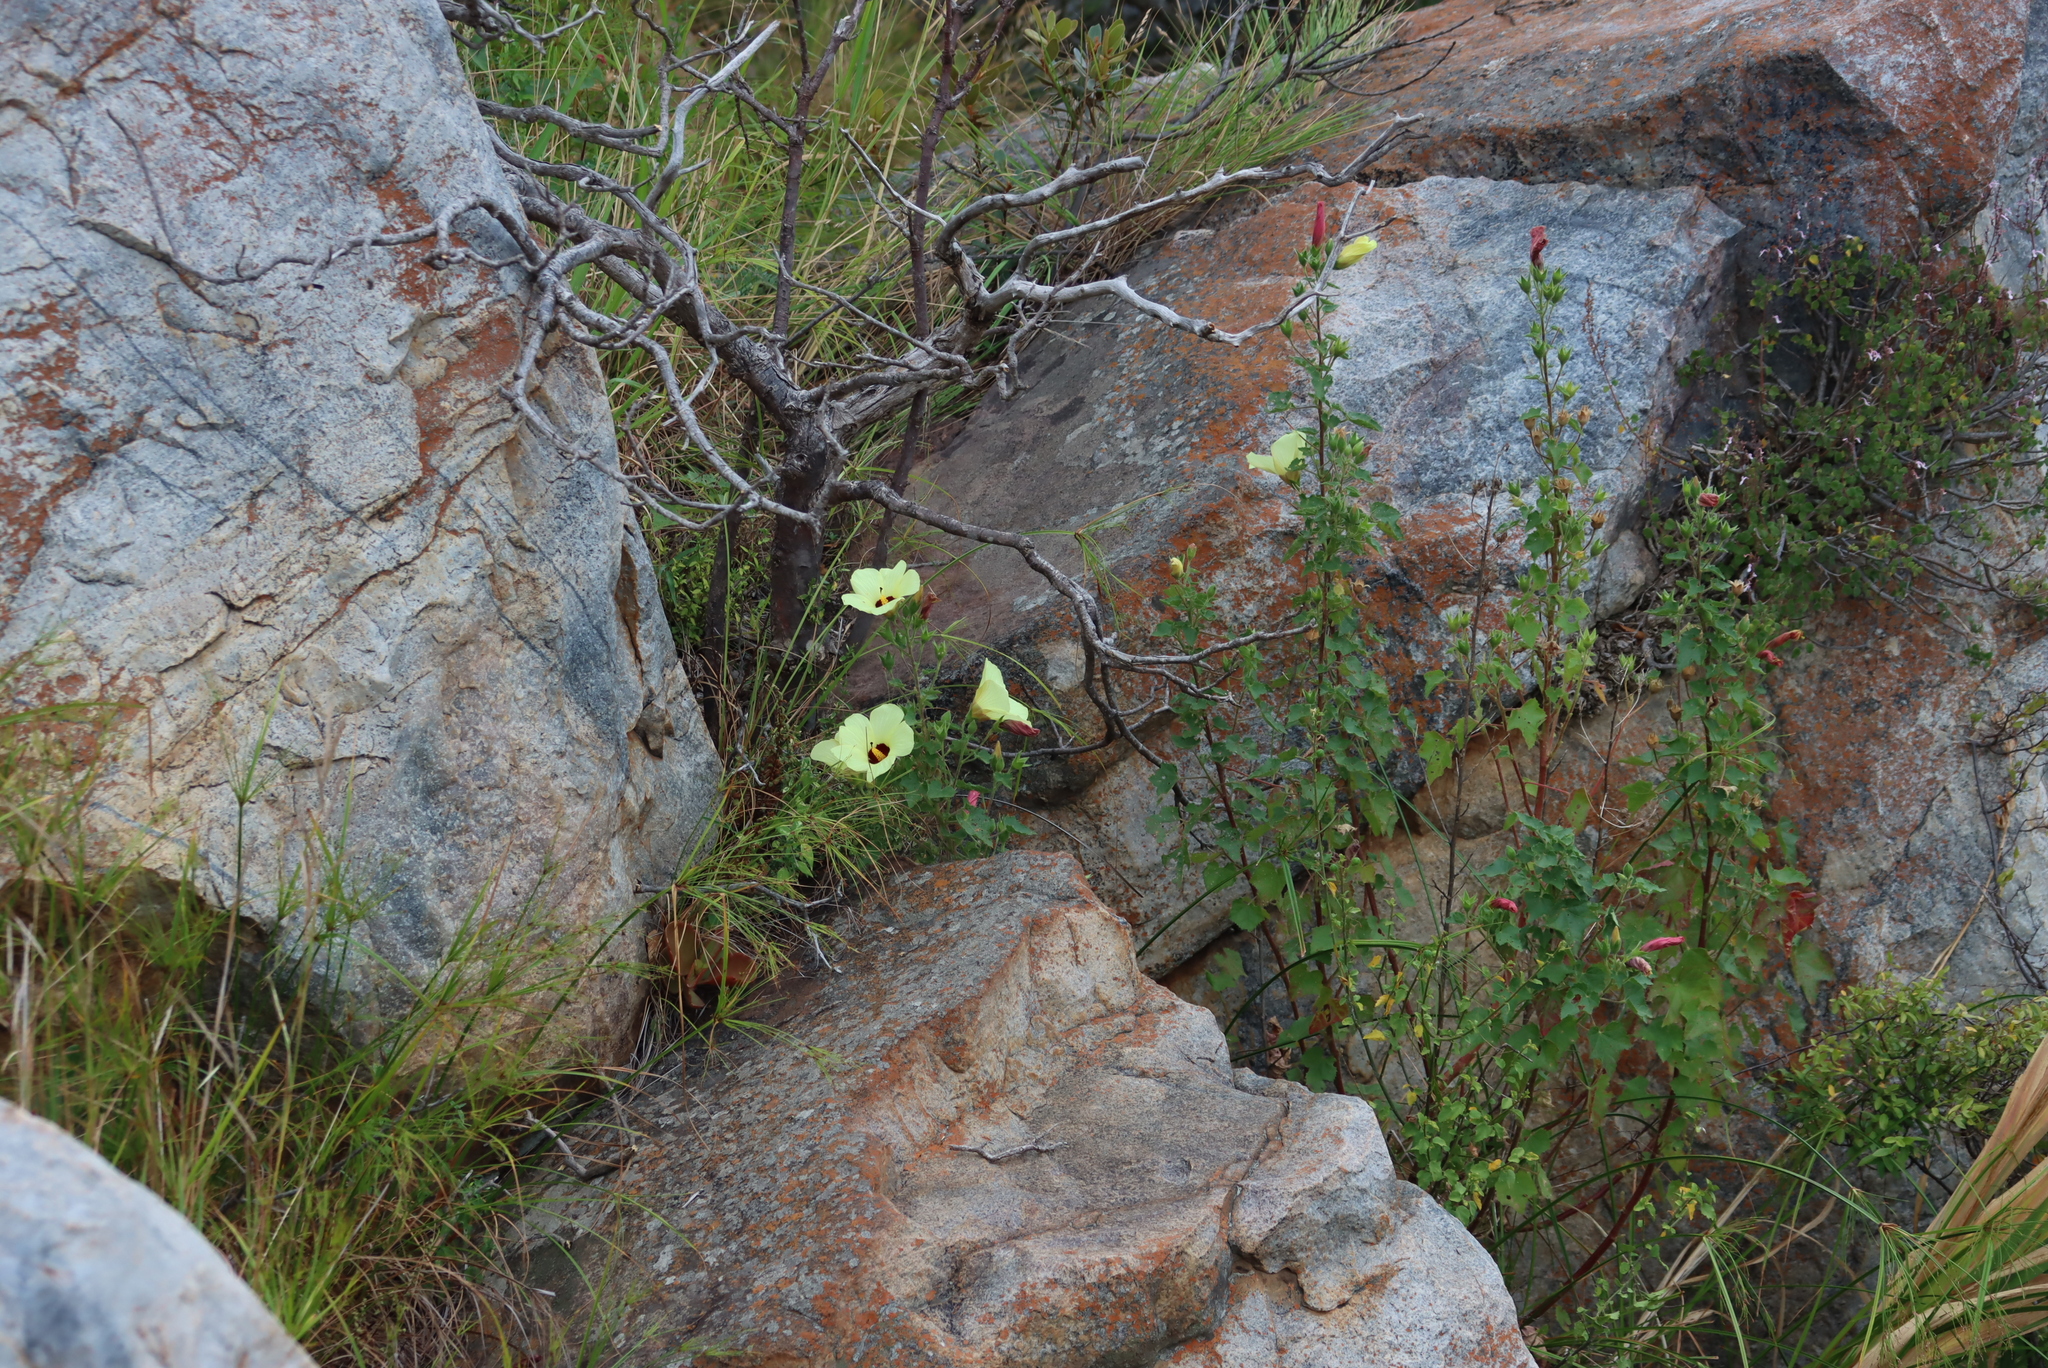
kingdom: Plantae
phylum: Tracheophyta
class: Magnoliopsida
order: Malvales
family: Malvaceae
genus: Hibiscus
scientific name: Hibiscus engleri
